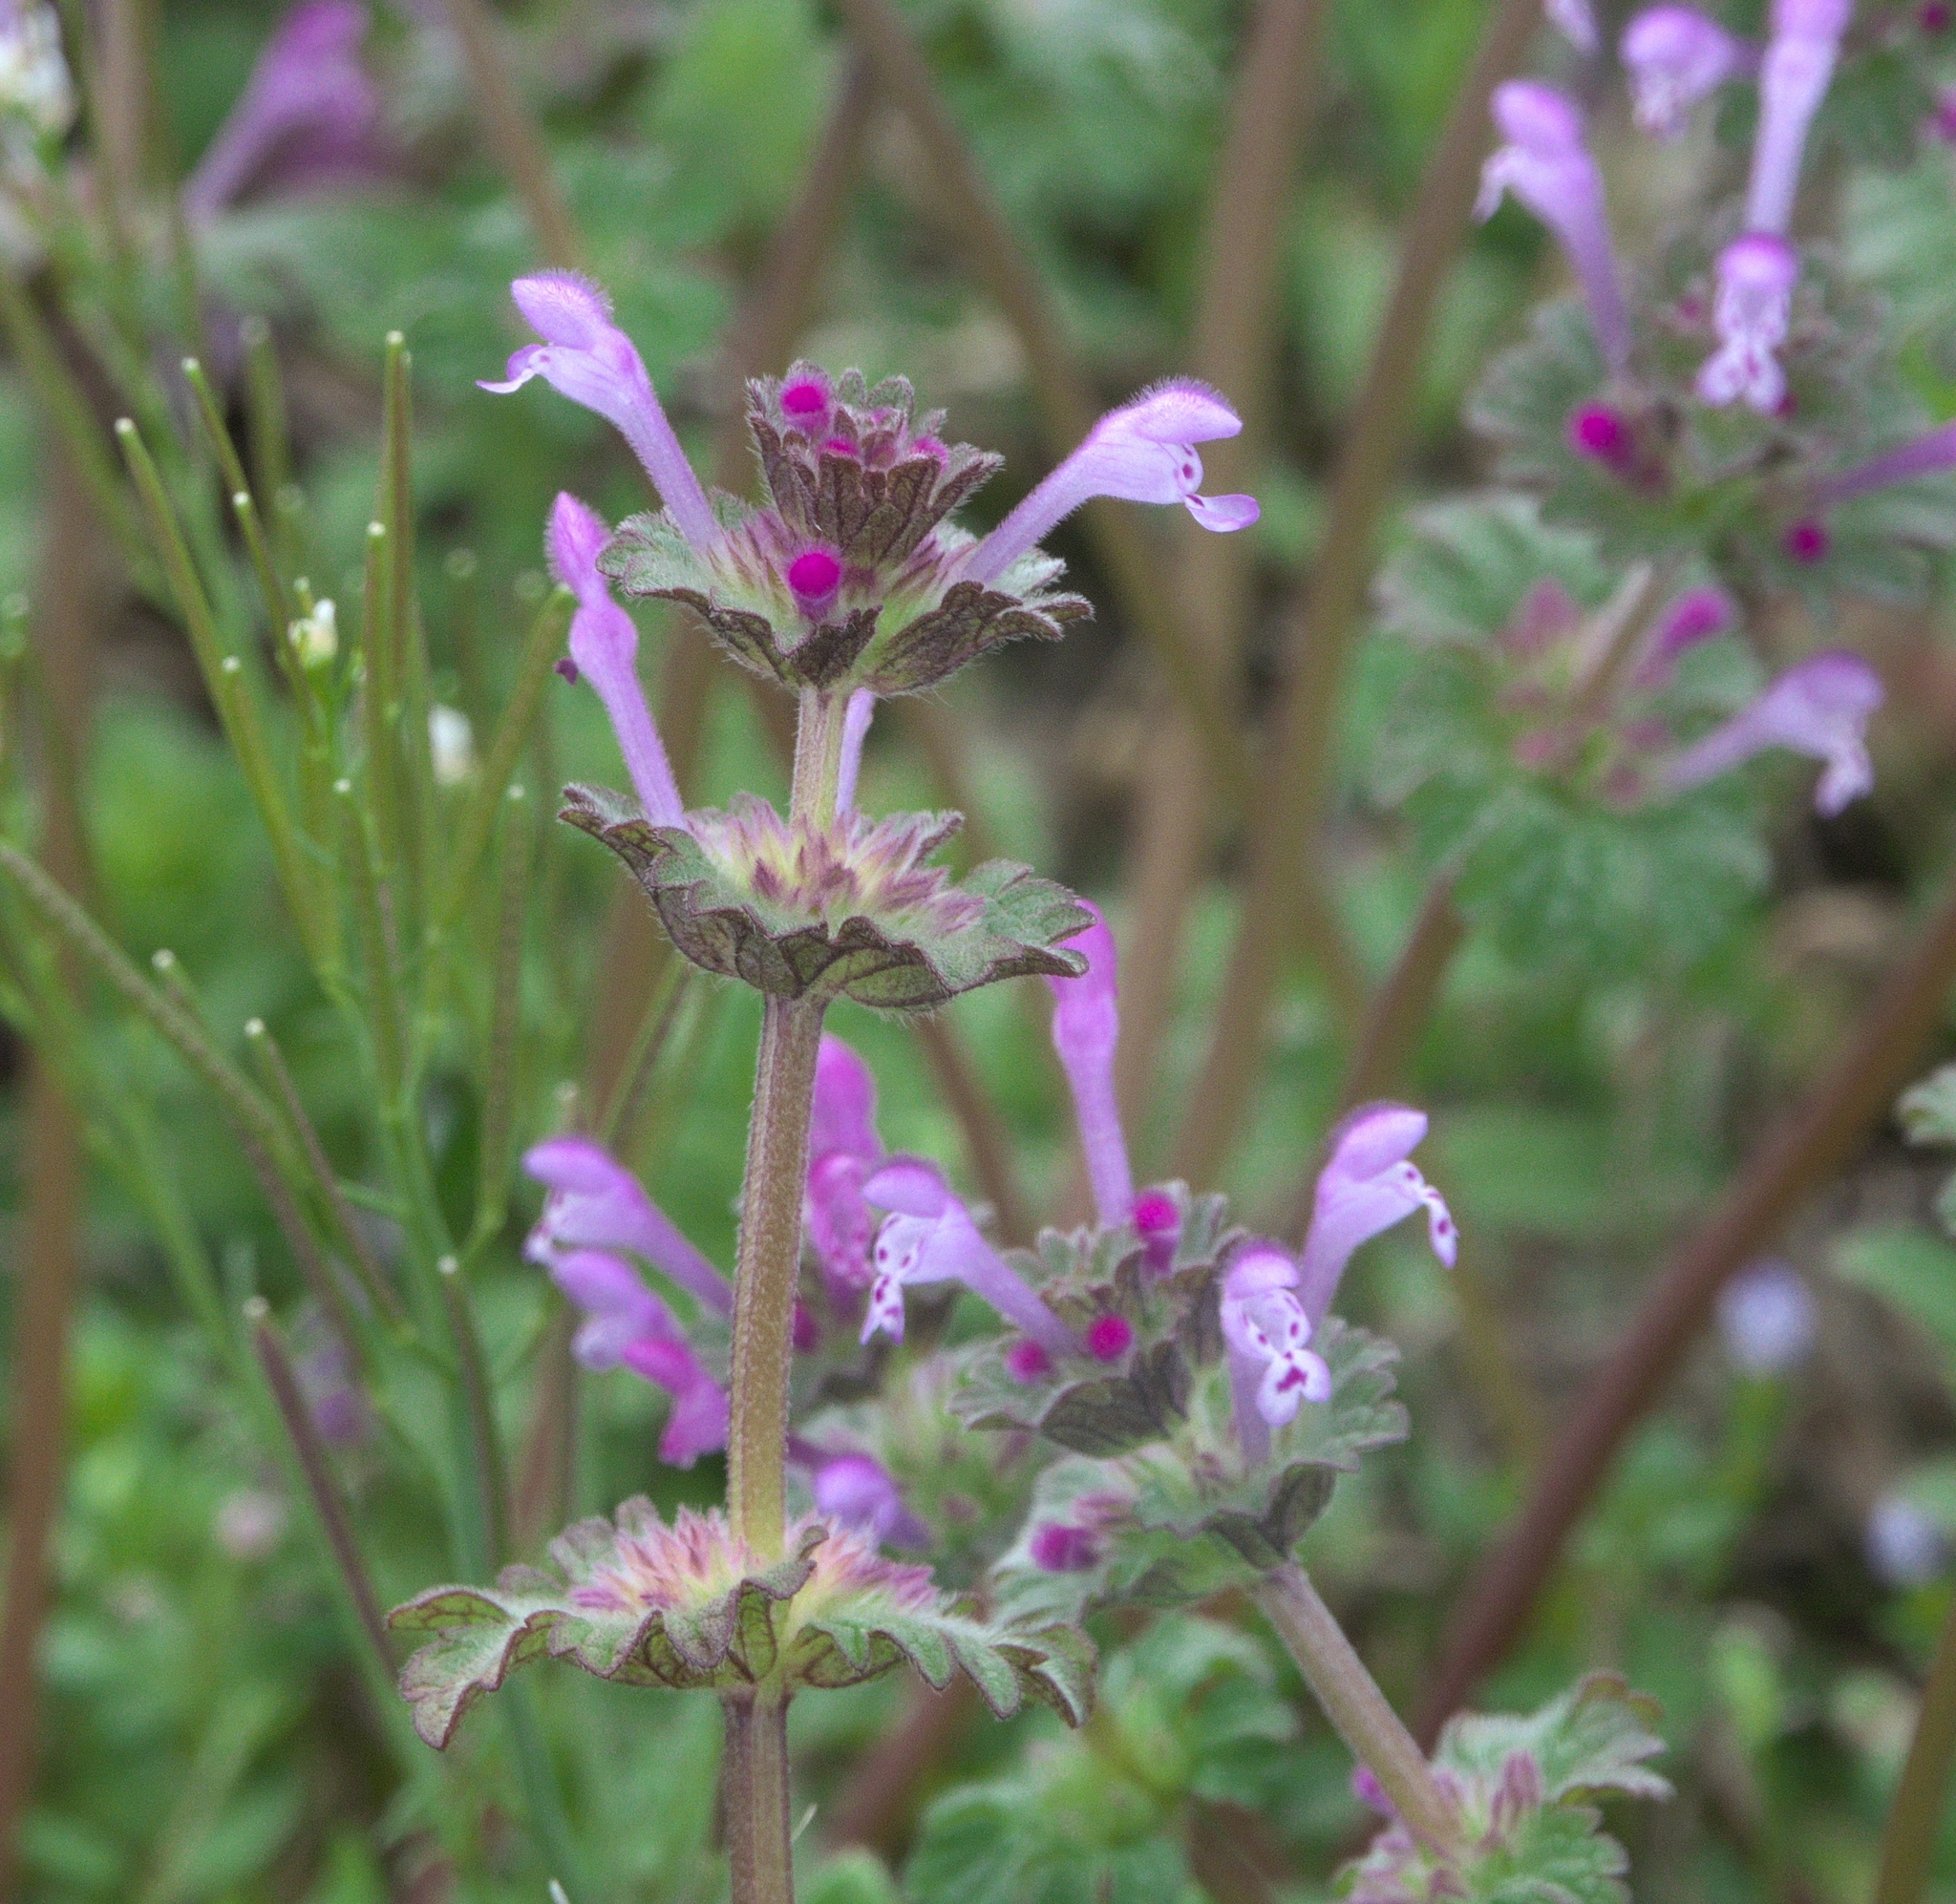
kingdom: Plantae
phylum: Tracheophyta
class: Magnoliopsida
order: Lamiales
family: Lamiaceae
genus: Lamium
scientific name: Lamium amplexicaule
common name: Henbit dead-nettle
